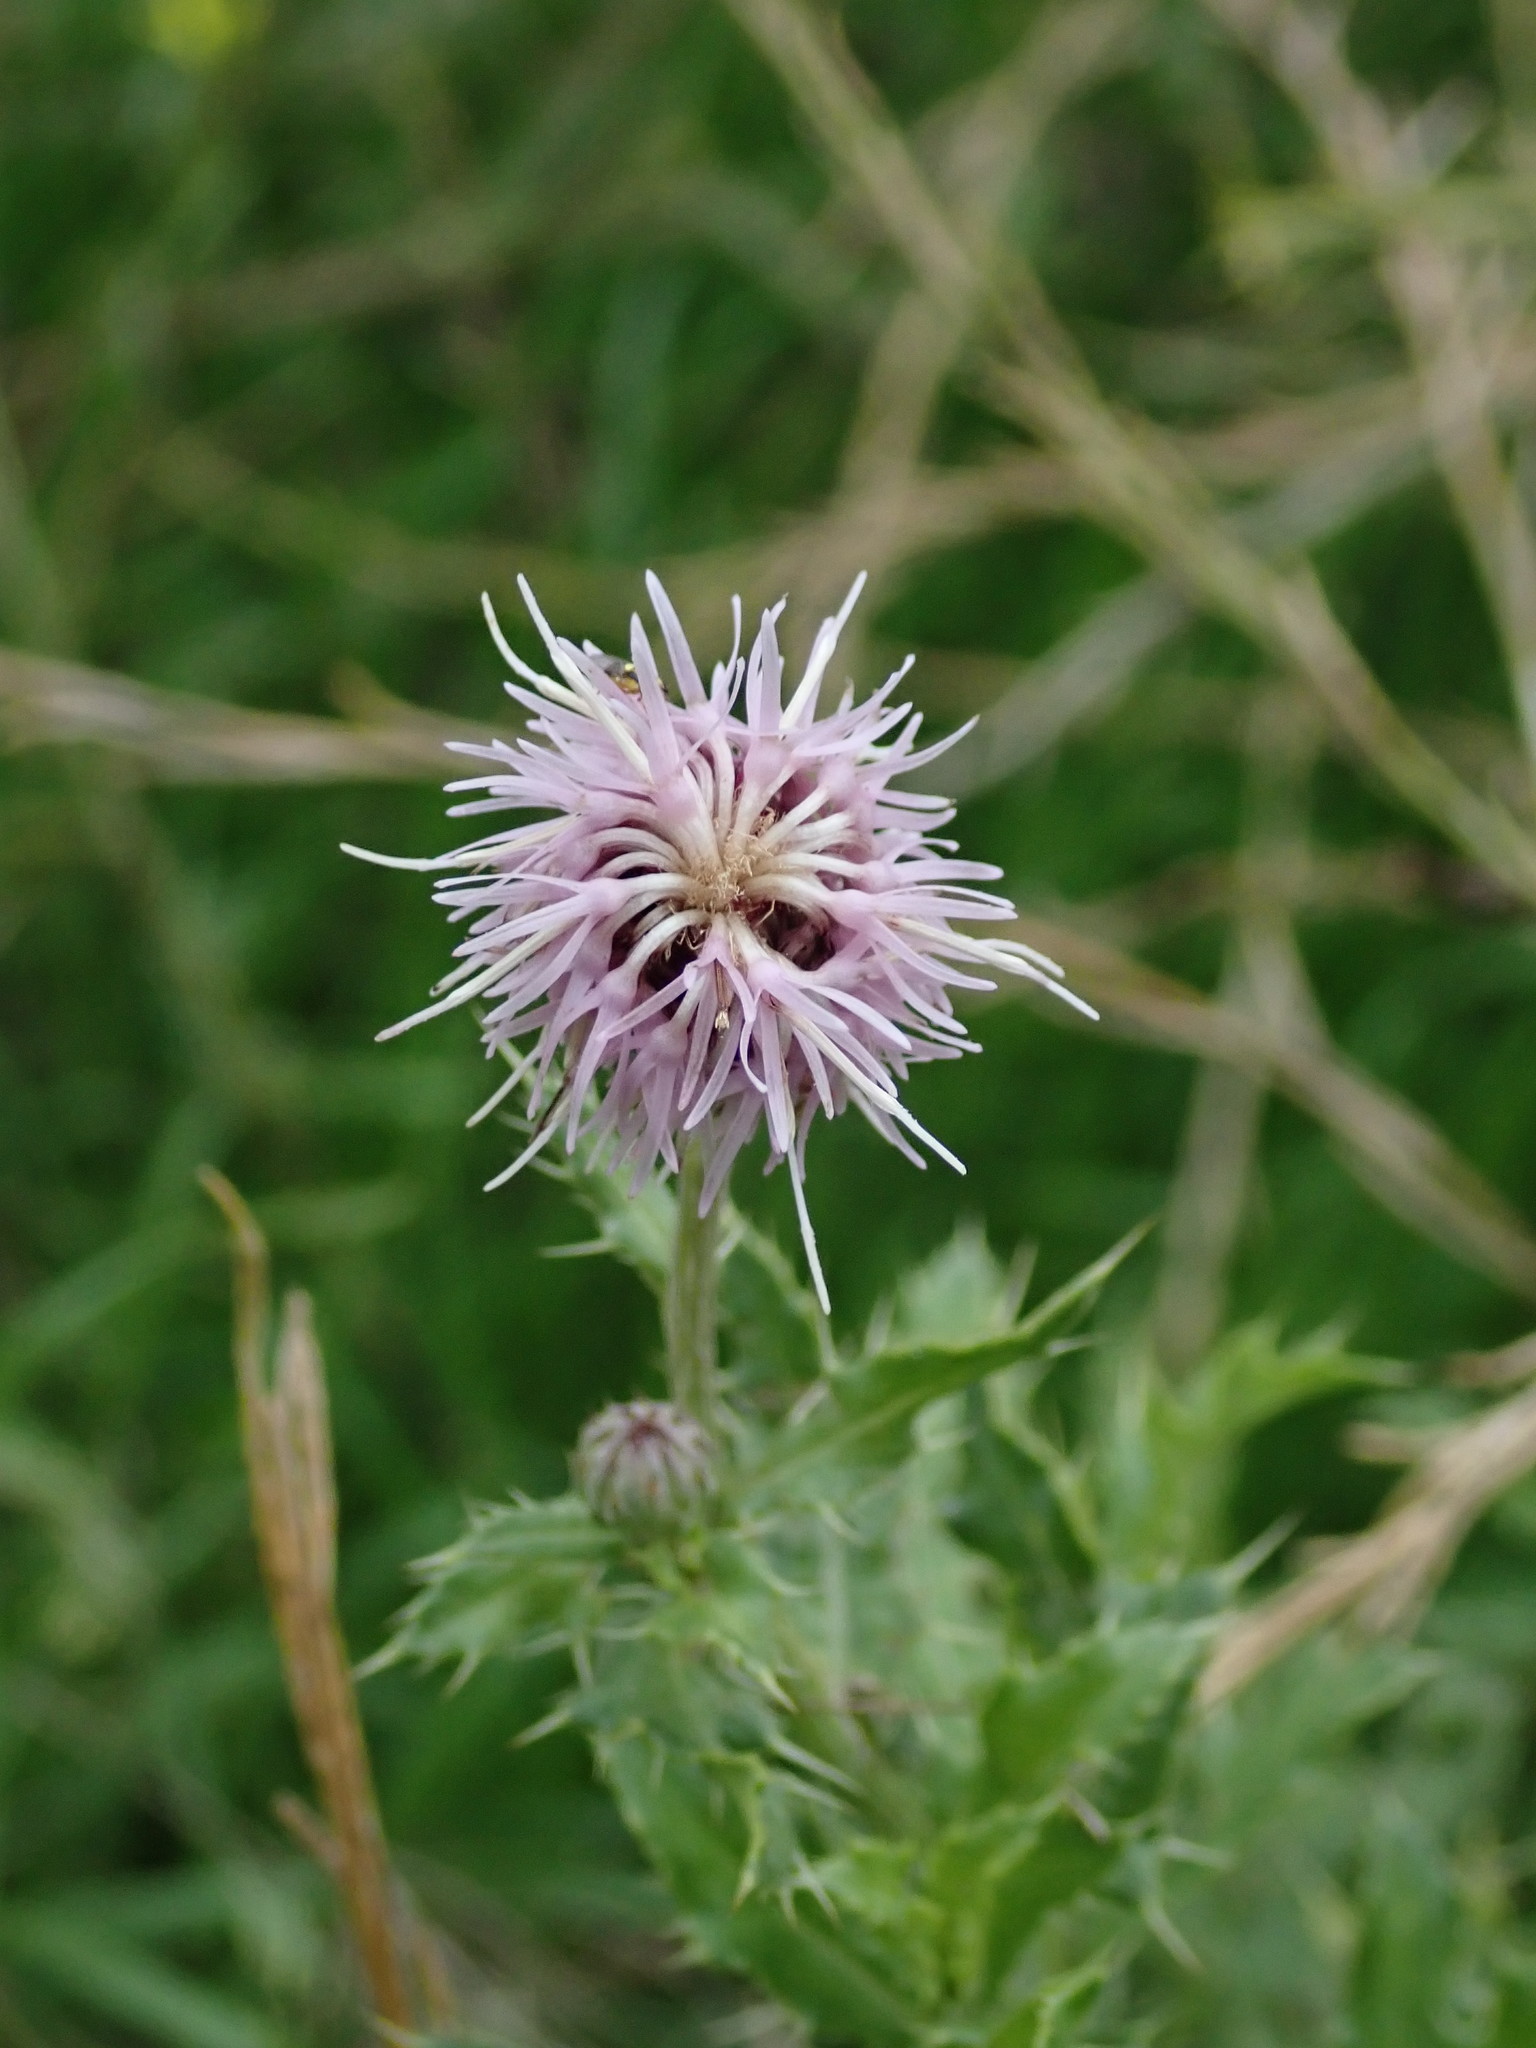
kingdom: Plantae
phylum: Tracheophyta
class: Magnoliopsida
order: Asterales
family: Asteraceae
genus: Cirsium
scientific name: Cirsium arvense
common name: Creeping thistle
